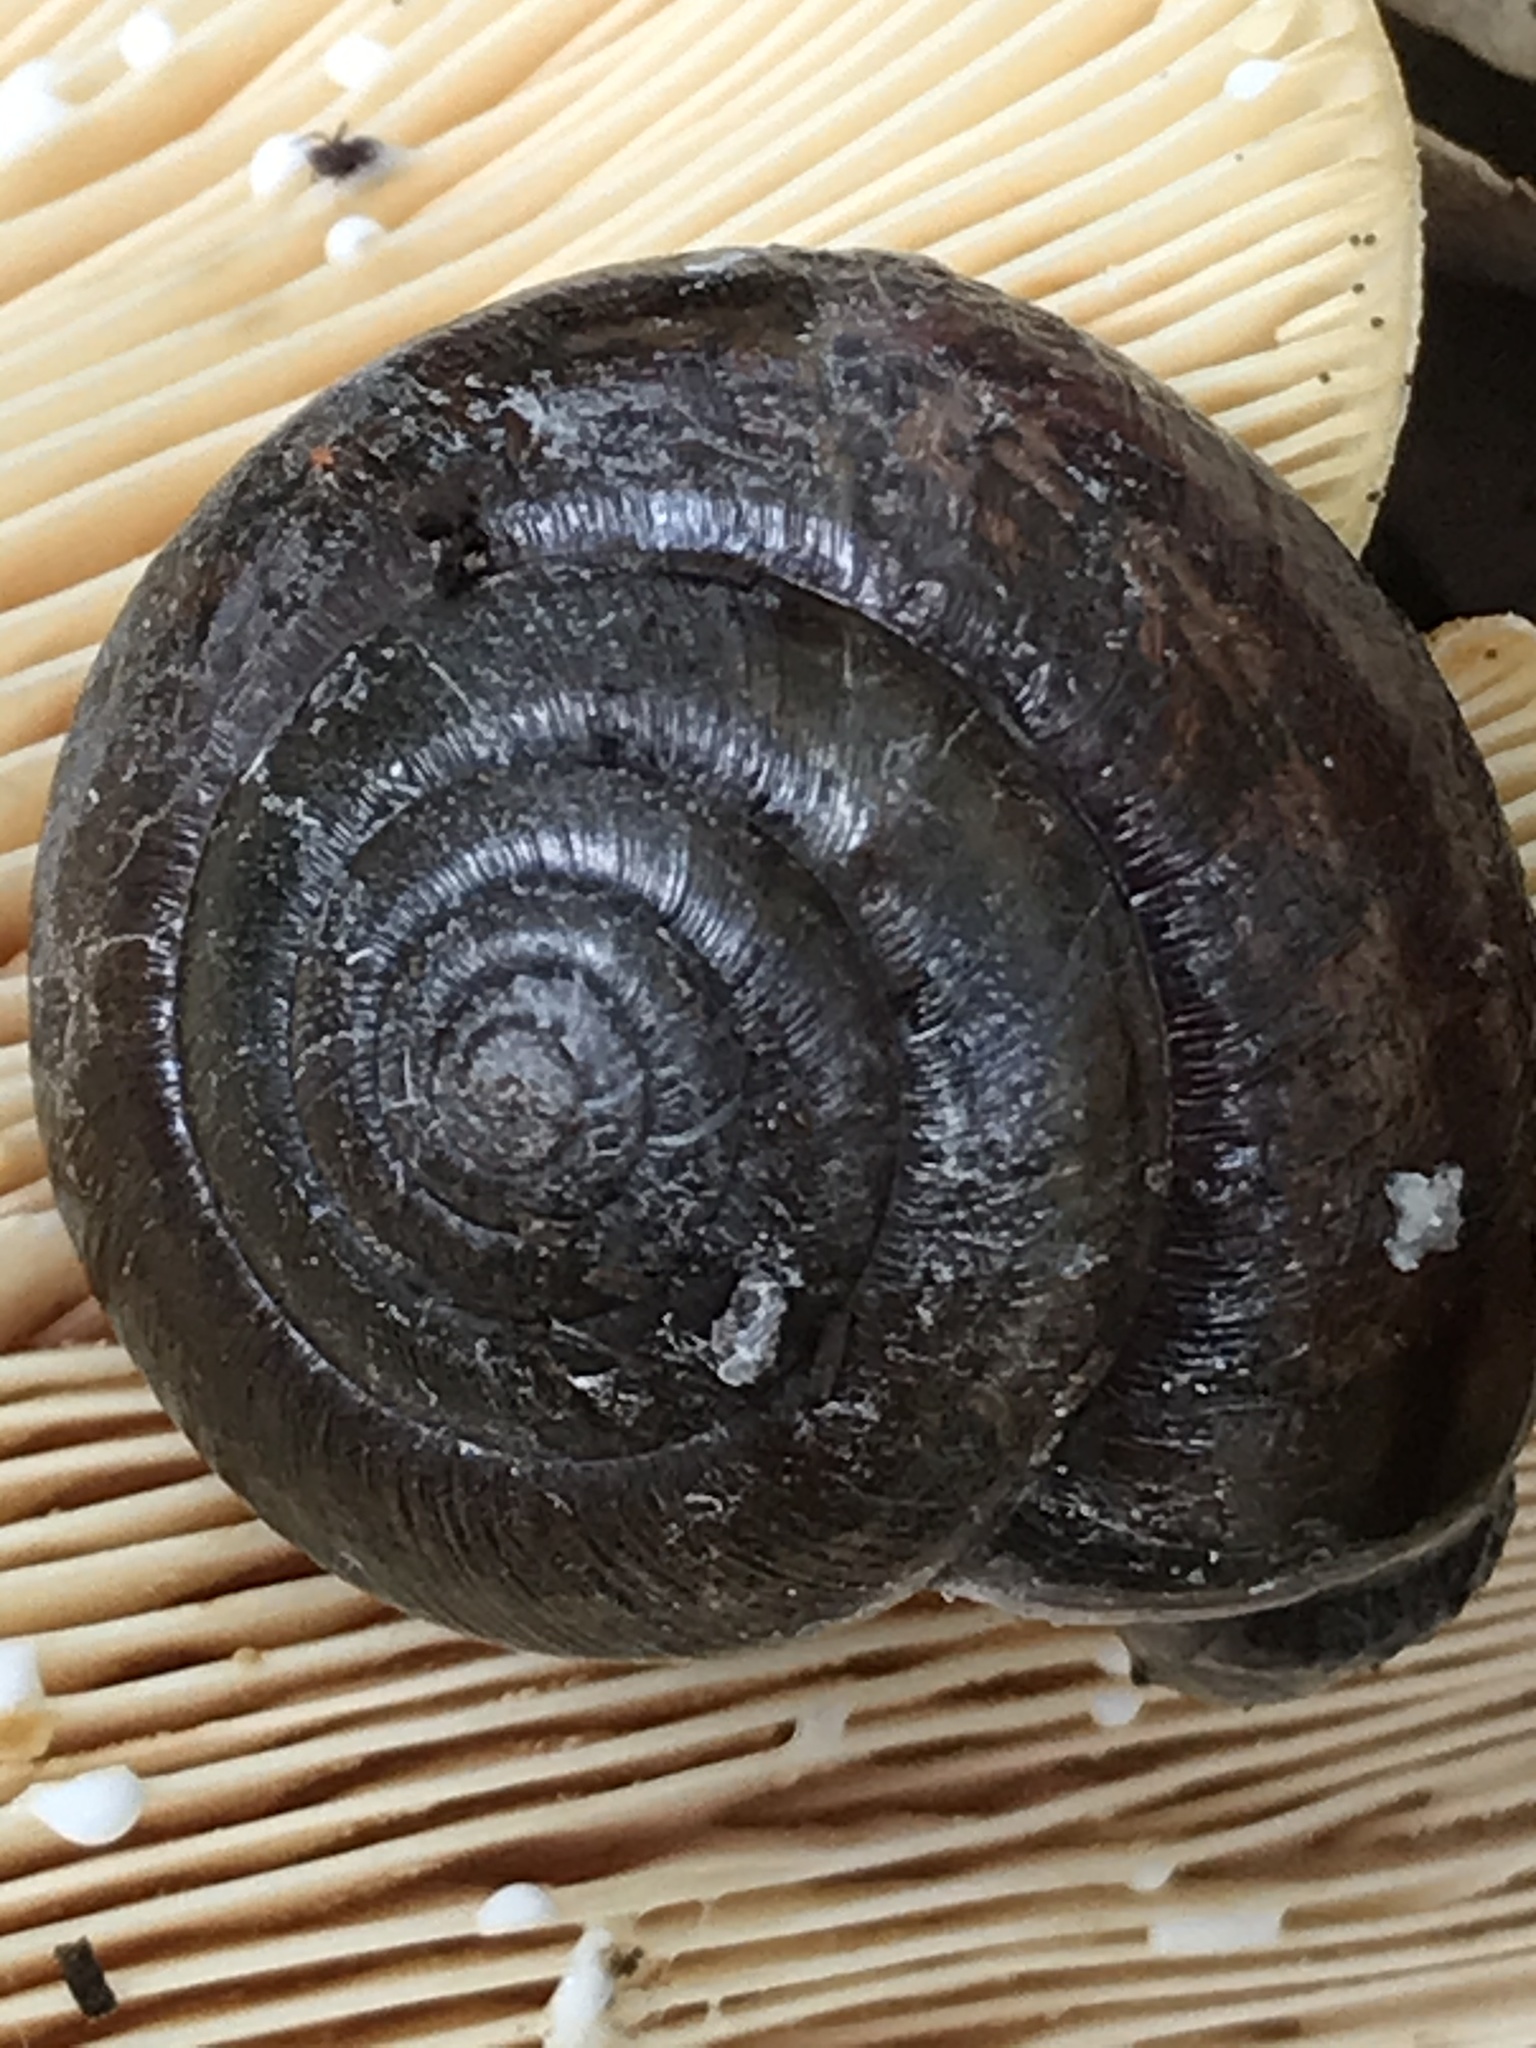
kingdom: Animalia
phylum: Mollusca
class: Gastropoda
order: Stylommatophora
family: Xanthonychidae
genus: Helminthoglypta
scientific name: Helminthoglypta umbilicata
